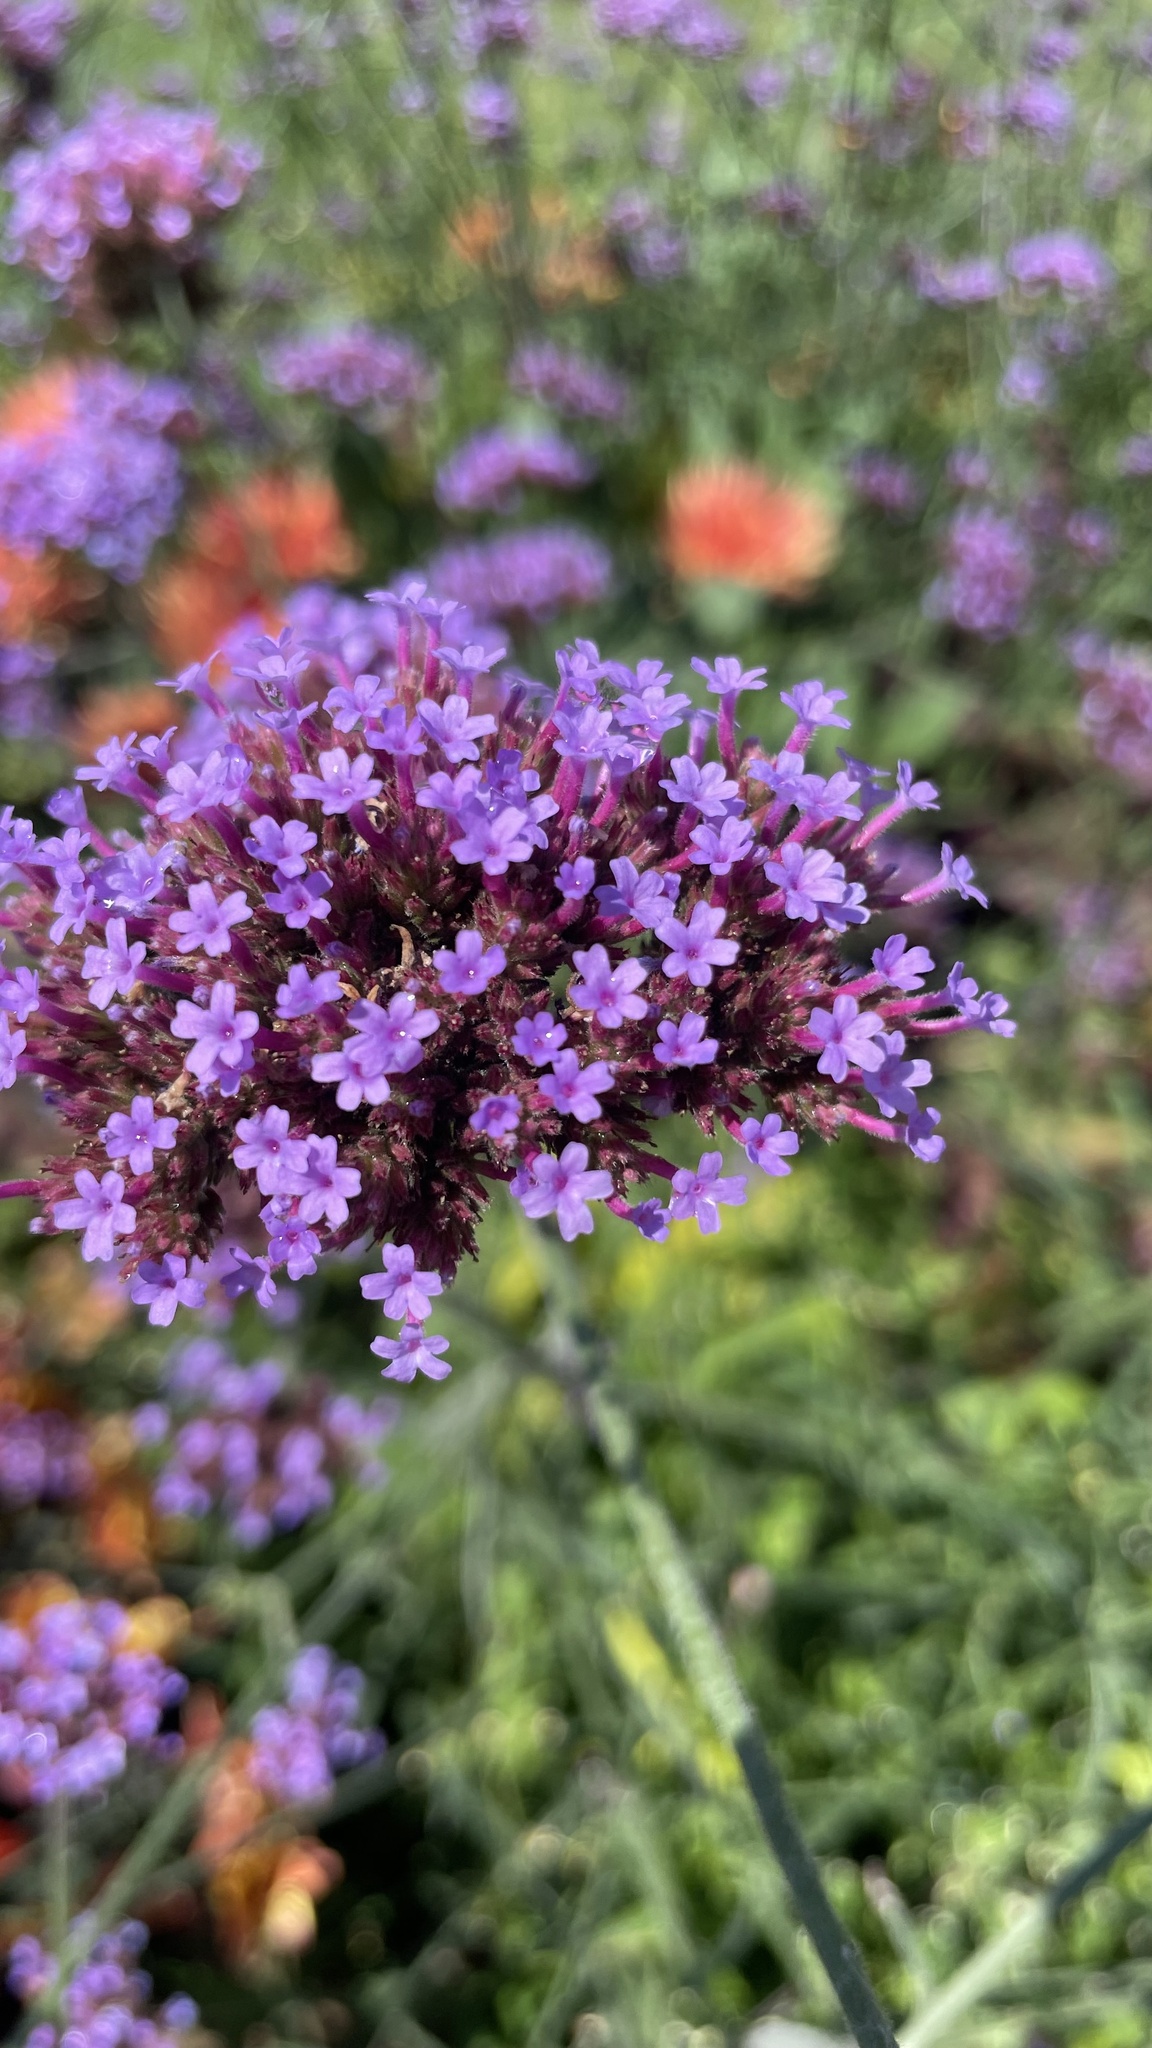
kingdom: Plantae
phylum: Tracheophyta
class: Magnoliopsida
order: Lamiales
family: Verbenaceae
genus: Verbena
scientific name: Verbena bonariensis
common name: Purpletop vervain
